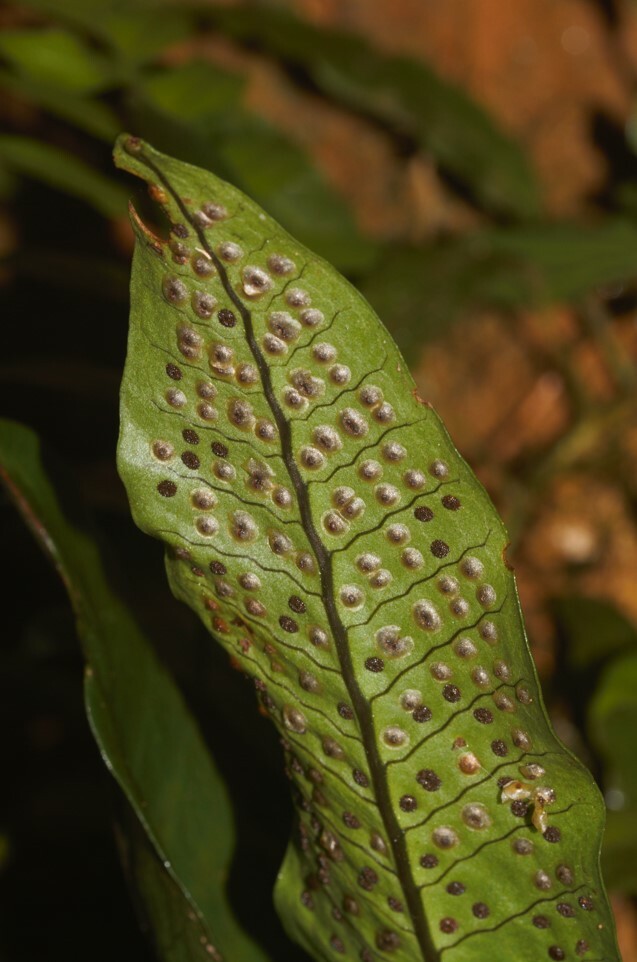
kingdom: Plantae
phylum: Tracheophyta
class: Polypodiopsida
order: Polypodiales
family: Lomariopsidaceae
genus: Dracoglossum
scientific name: Dracoglossum sinuatum
